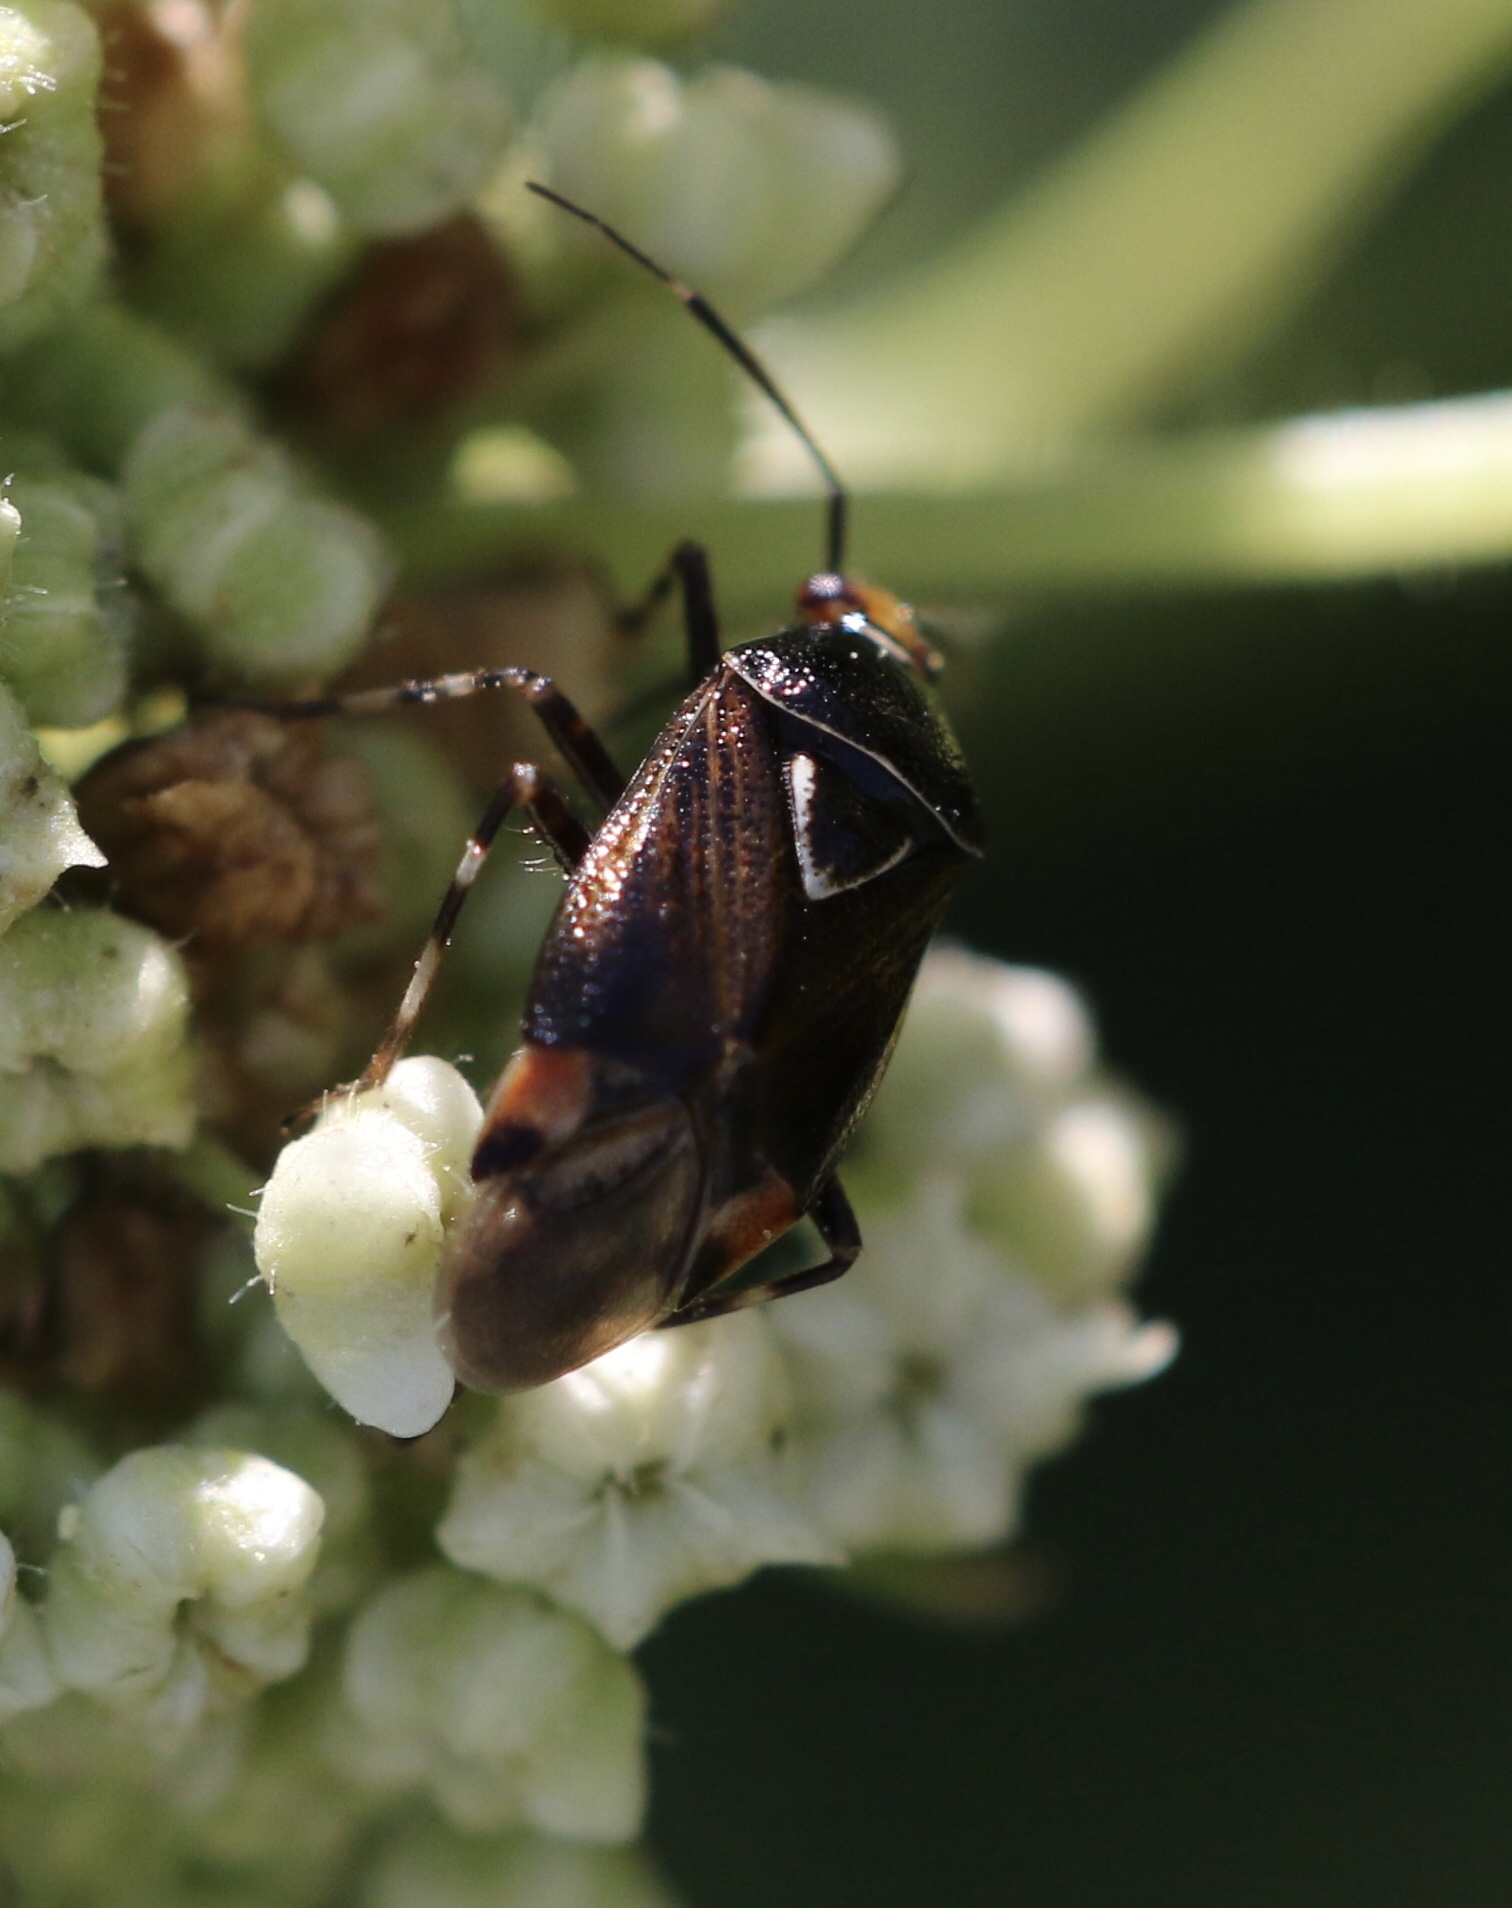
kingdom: Animalia
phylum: Arthropoda
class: Insecta
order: Hemiptera
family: Miridae
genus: Deraeocoris
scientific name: Deraeocoris flavilinea
